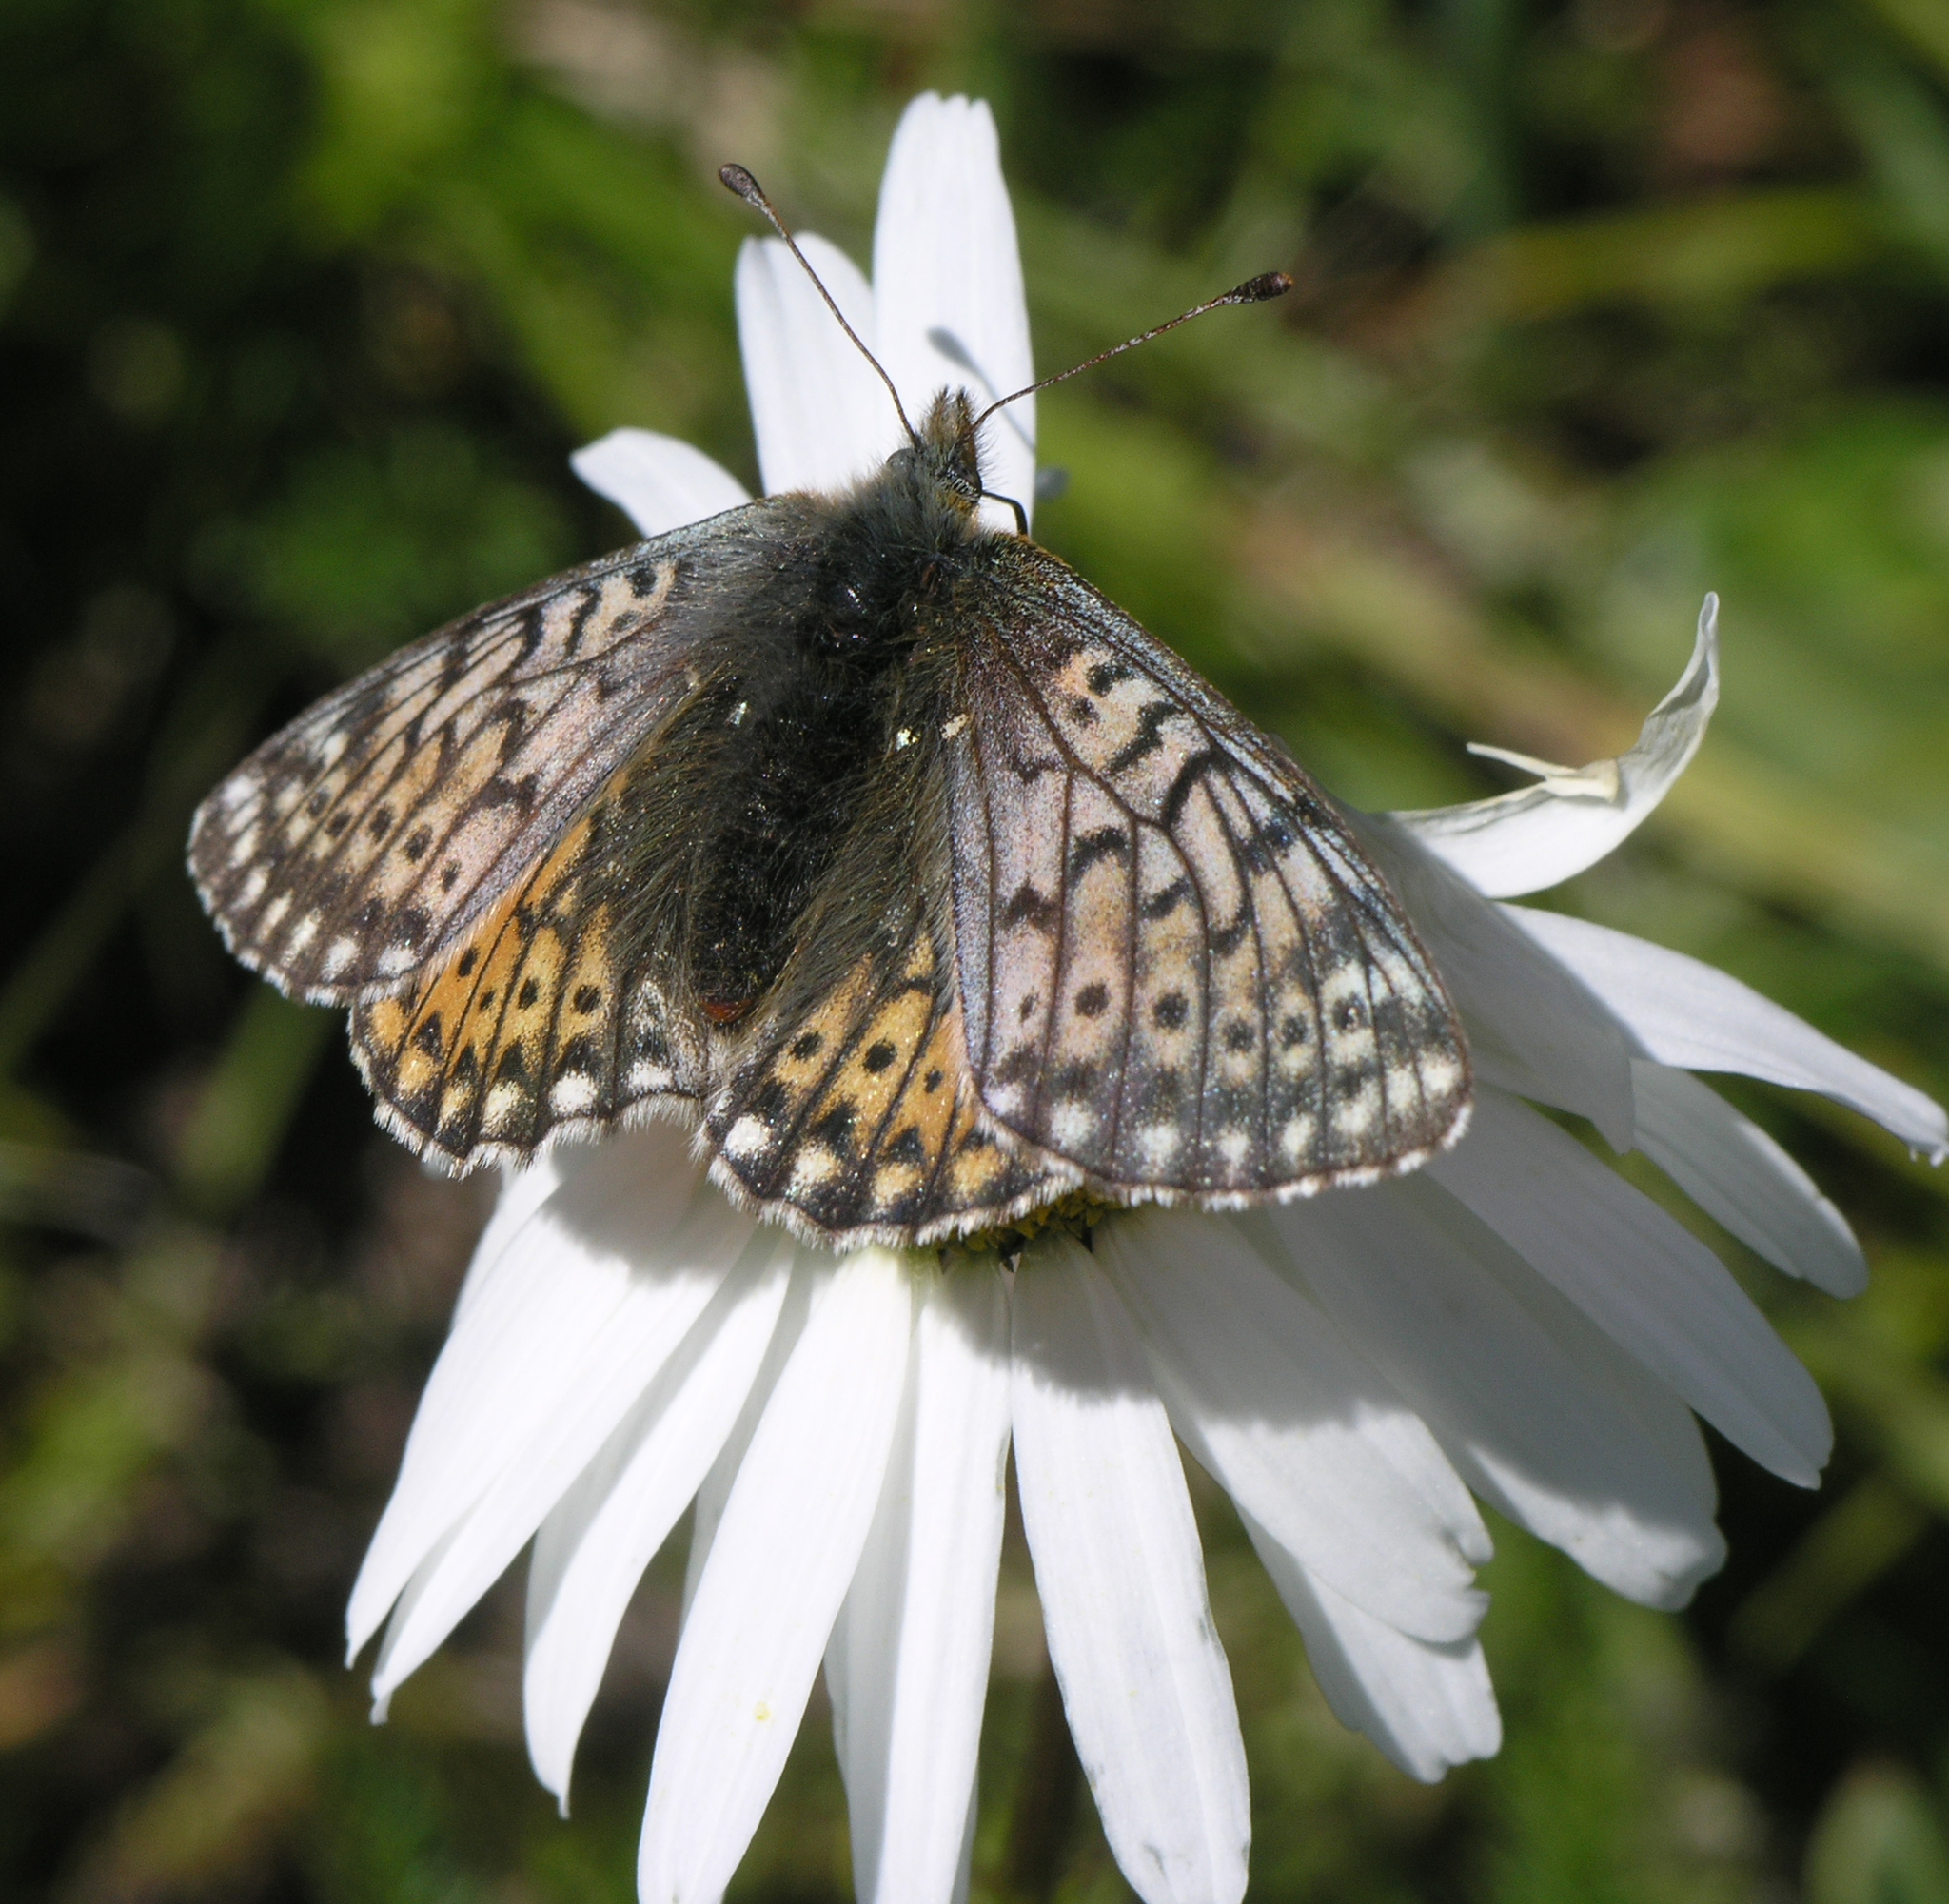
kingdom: Animalia
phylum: Arthropoda
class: Insecta
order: Lepidoptera
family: Nymphalidae
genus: Boloria
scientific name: Boloria napaea
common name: Mountain fritillary
